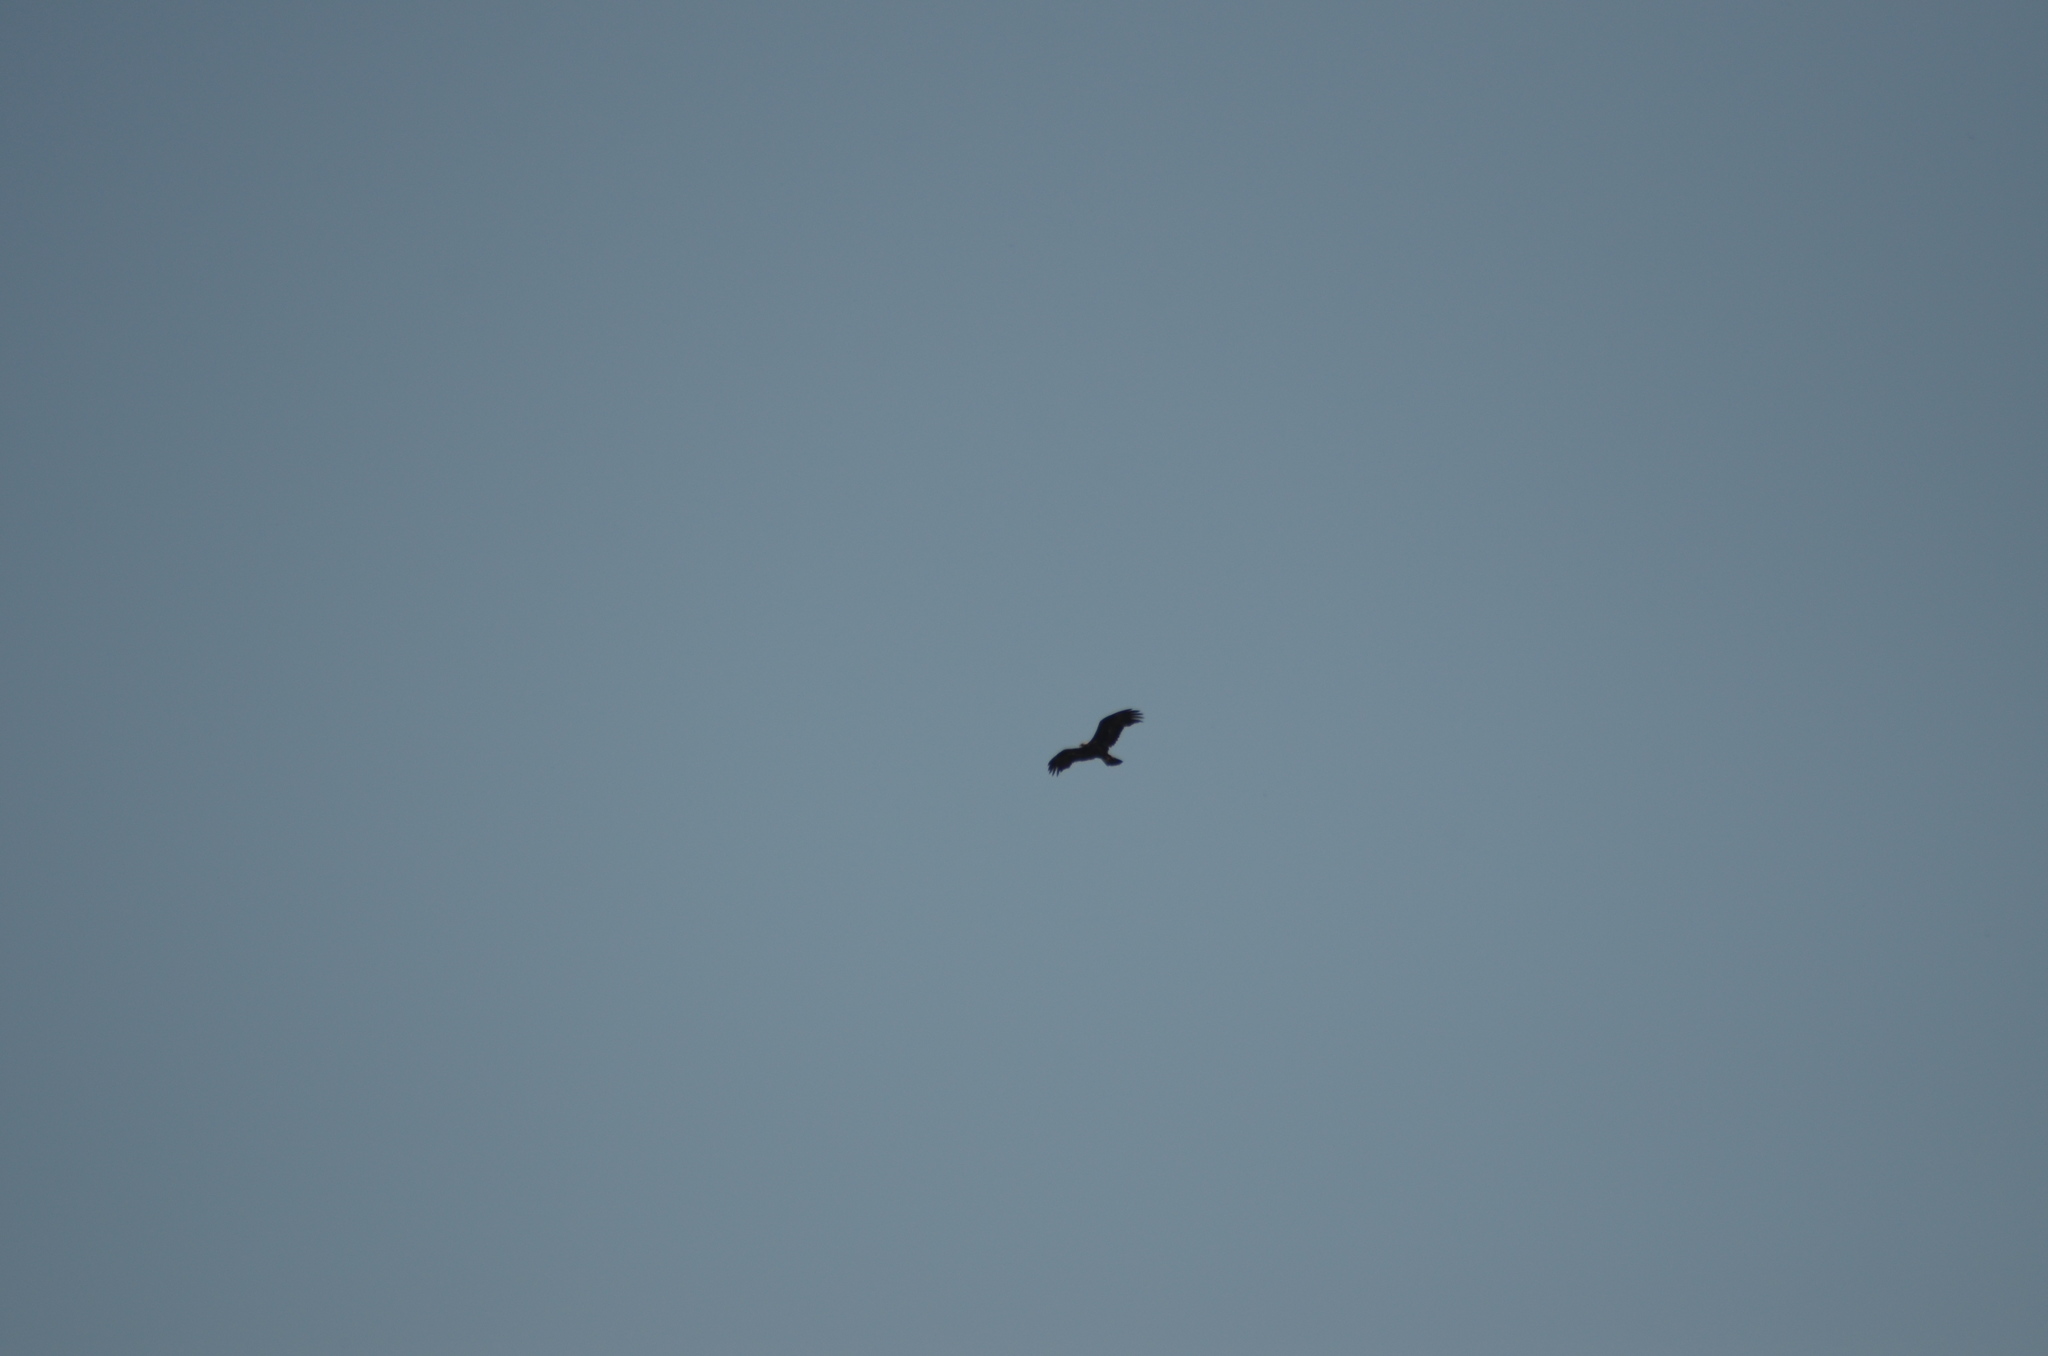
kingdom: Animalia
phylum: Chordata
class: Aves
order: Accipitriformes
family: Accipitridae
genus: Aquila
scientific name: Aquila chrysaetos
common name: Golden eagle
